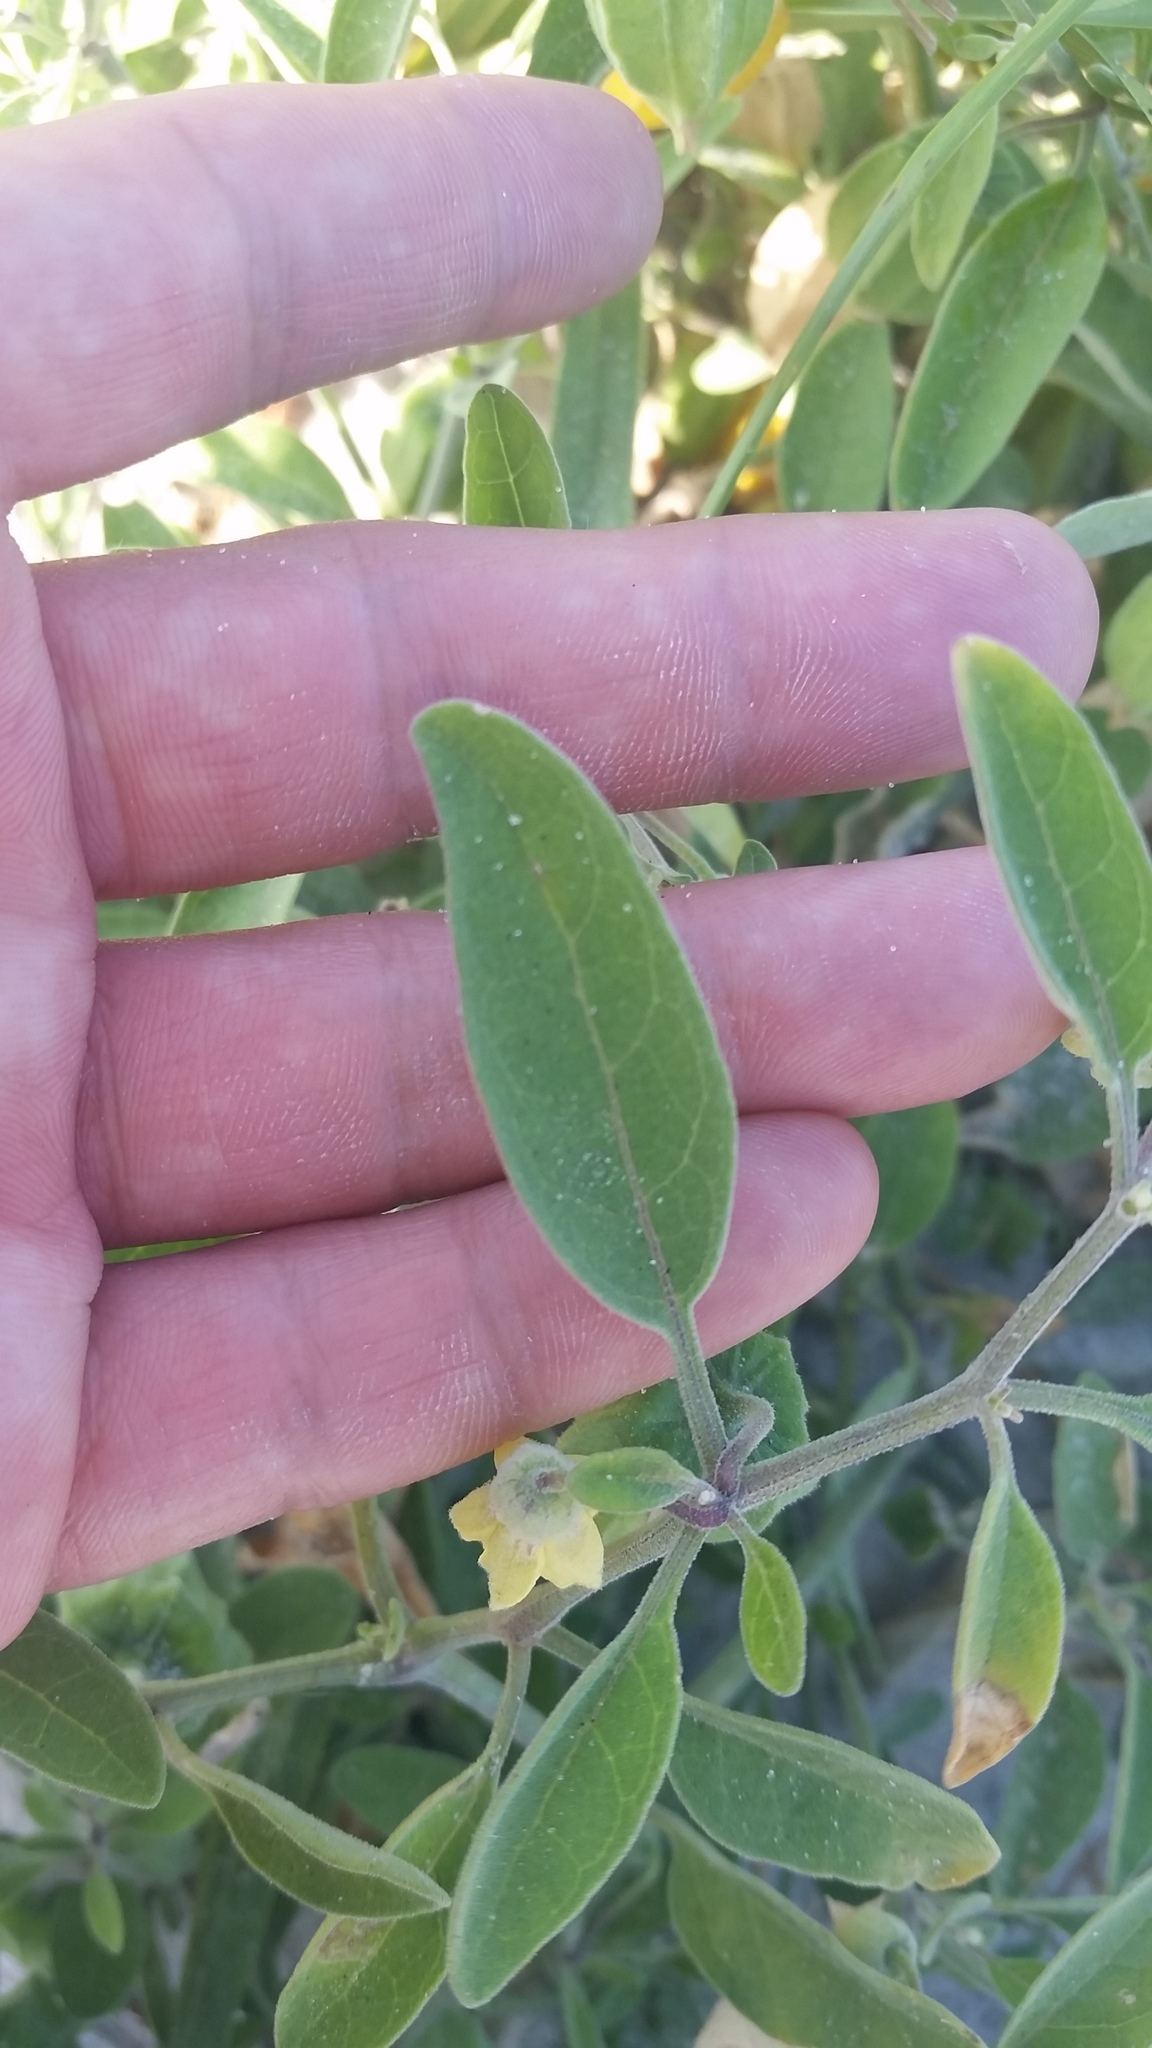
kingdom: Plantae
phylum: Tracheophyta
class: Magnoliopsida
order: Solanales
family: Solanaceae
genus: Physalis
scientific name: Physalis walteri
